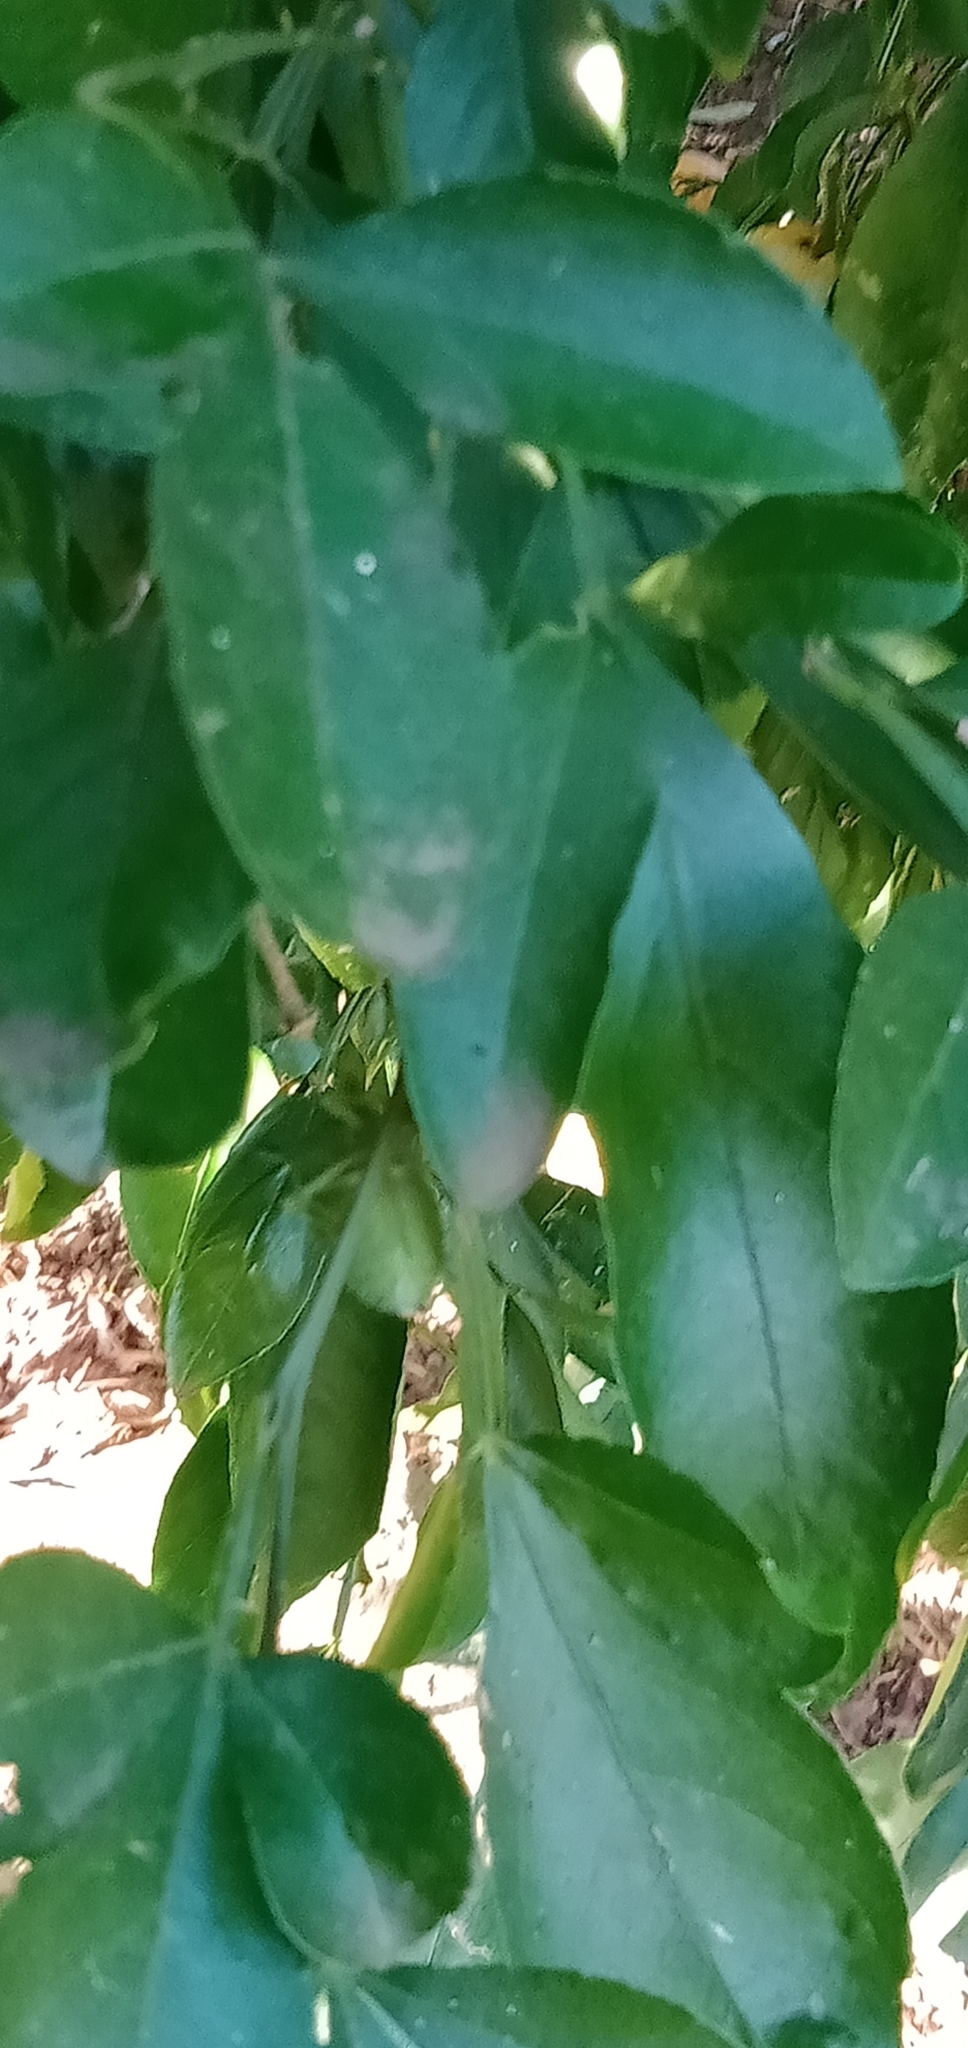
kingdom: Animalia
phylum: Arthropoda
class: Insecta
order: Hemiptera
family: Pentatomidae
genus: Biprorulus
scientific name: Biprorulus
